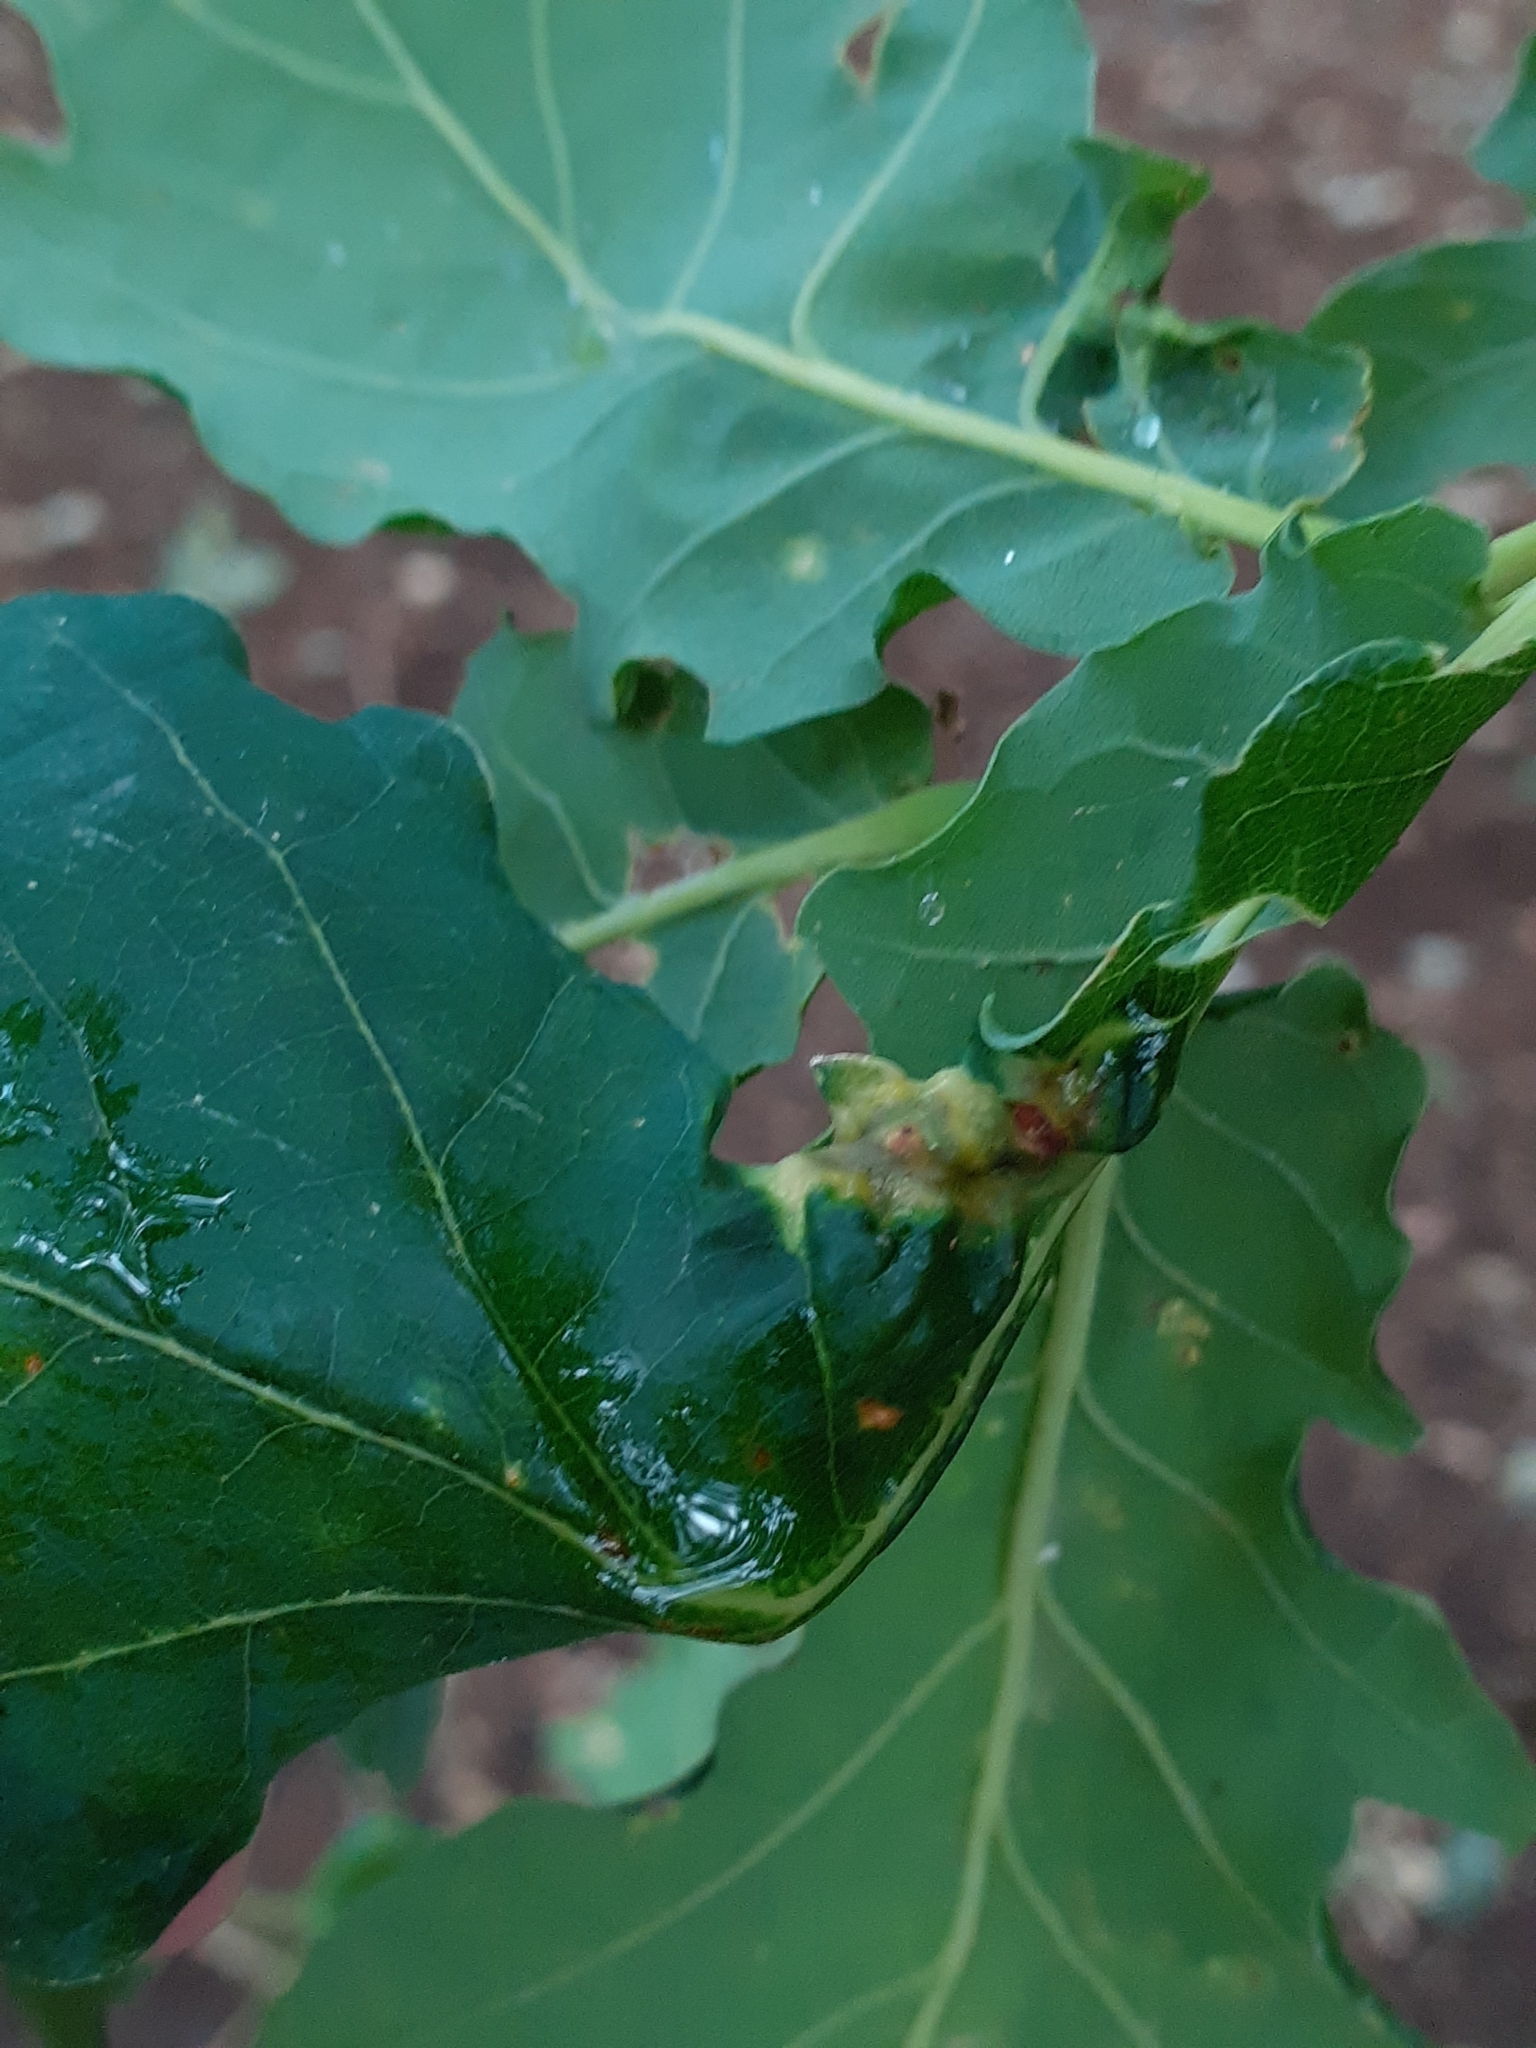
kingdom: Animalia
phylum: Arthropoda
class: Insecta
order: Hymenoptera
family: Cynipidae
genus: Andricus
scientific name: Andricus curvator
